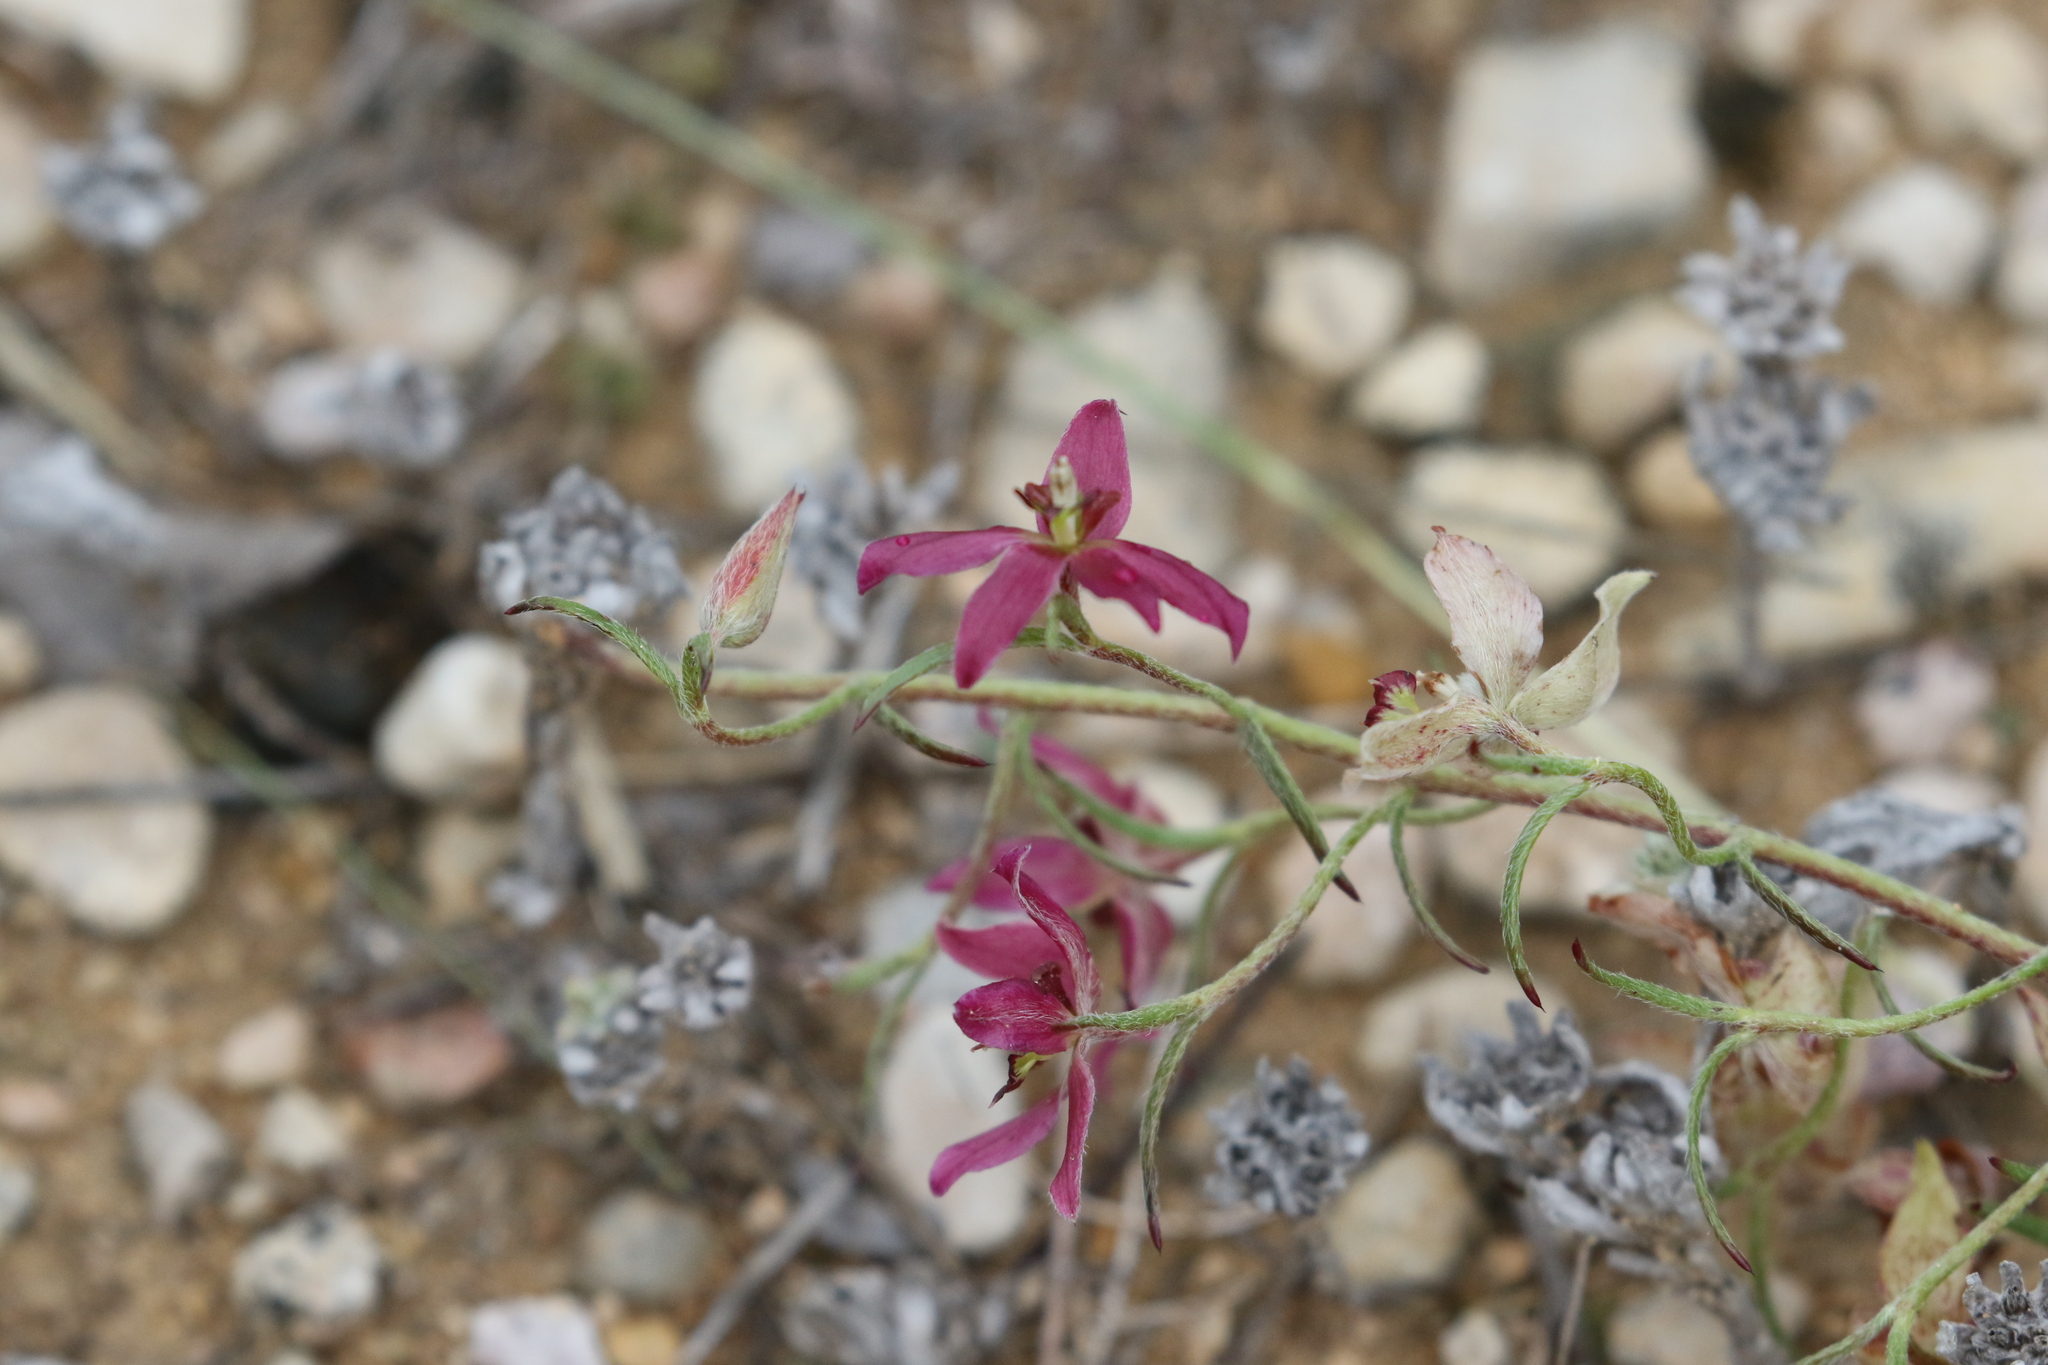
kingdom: Plantae
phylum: Tracheophyta
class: Magnoliopsida
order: Zygophyllales
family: Krameriaceae
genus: Krameria
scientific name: Krameria lanceolata
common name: Ratany
